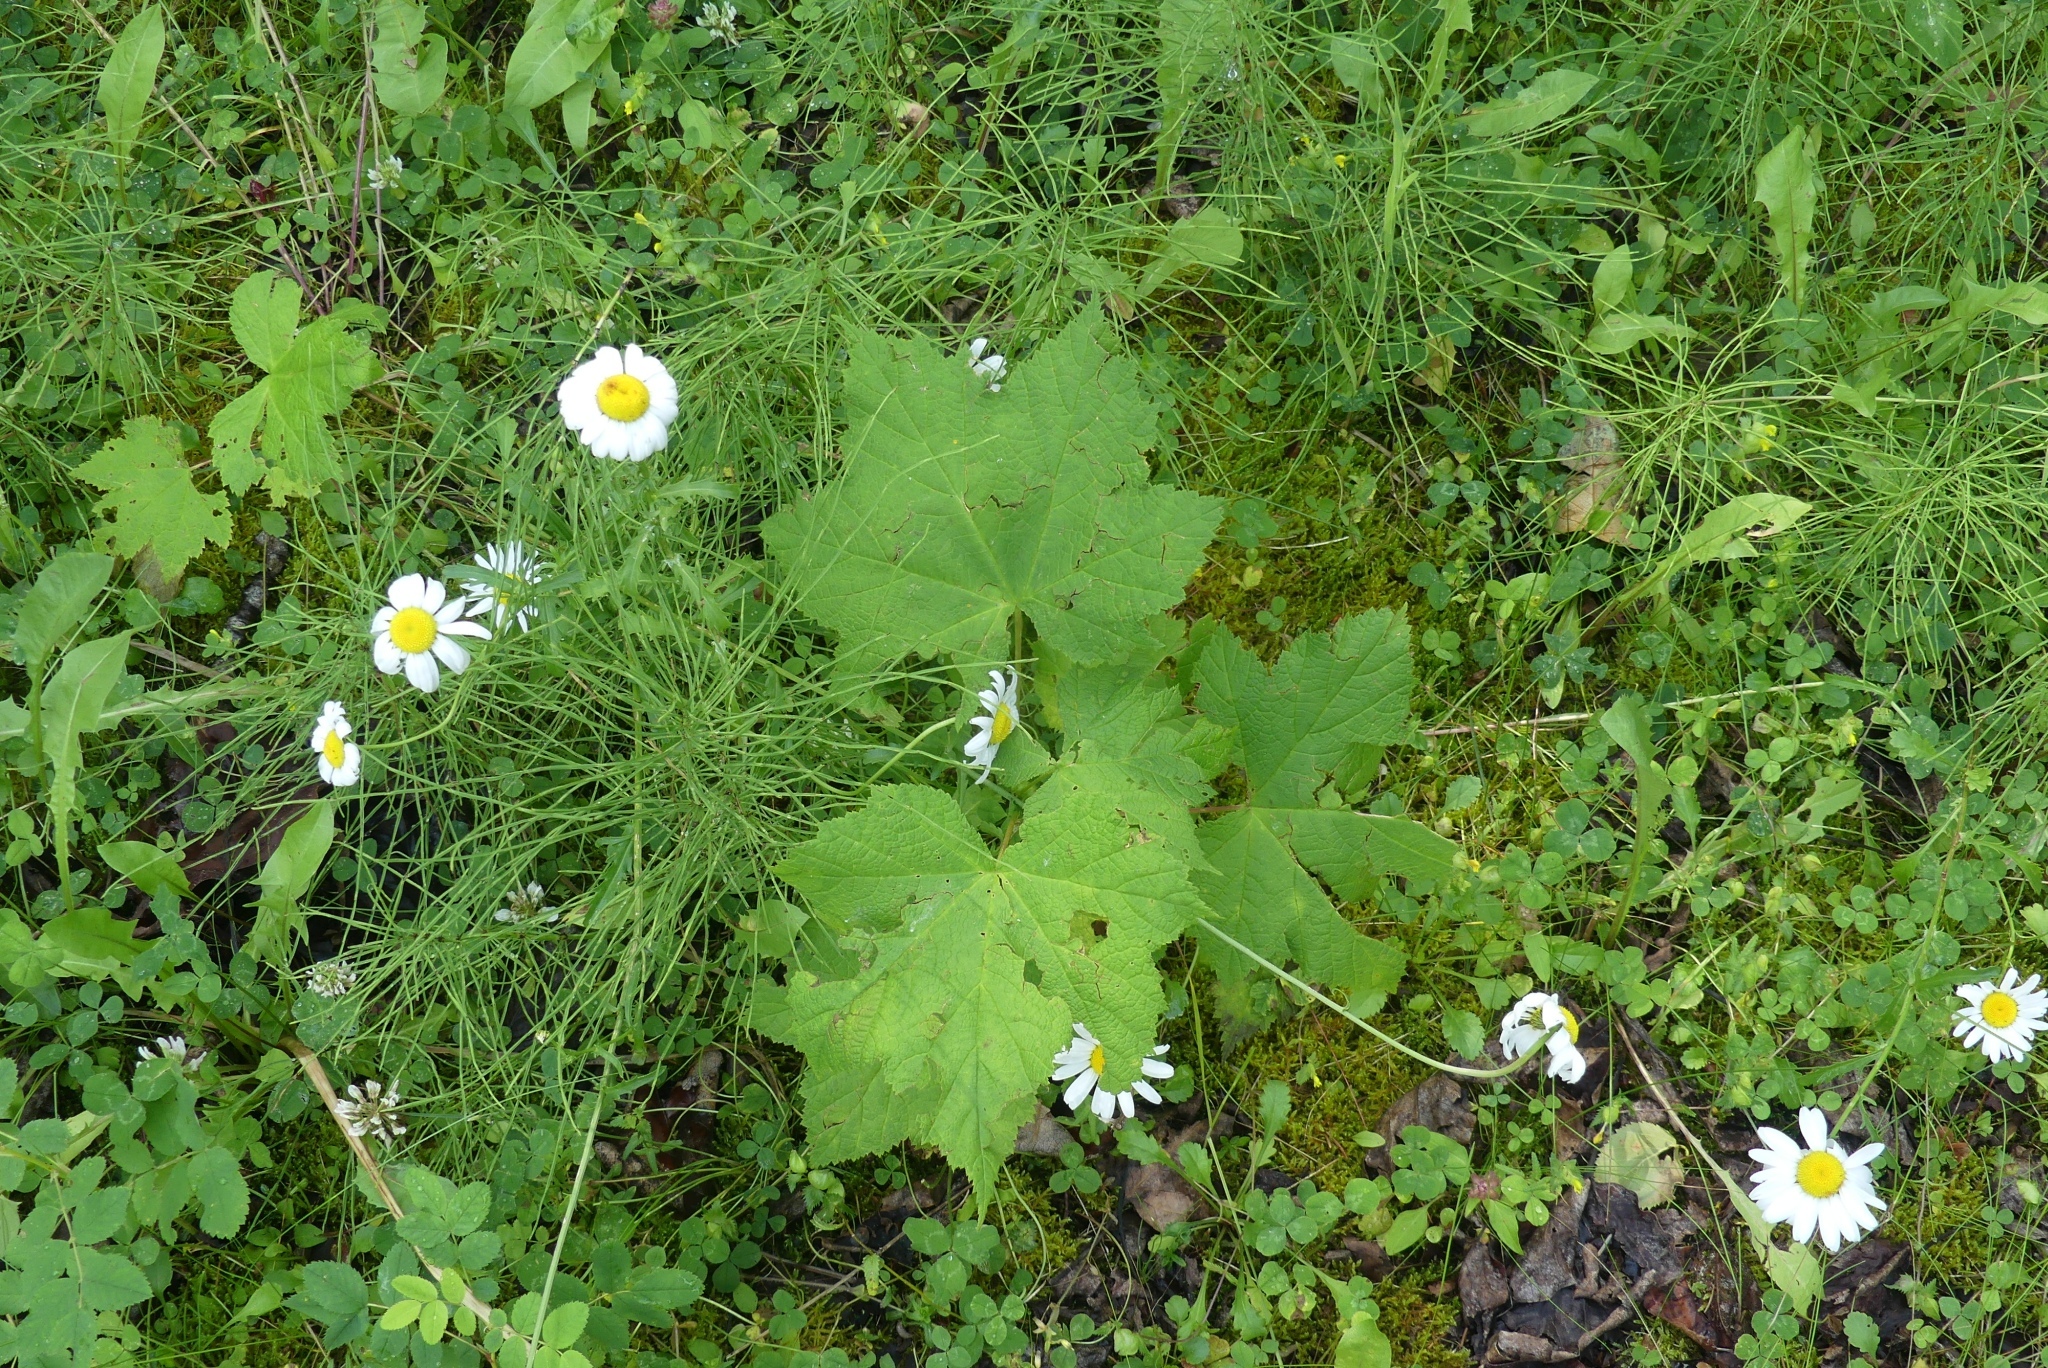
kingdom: Plantae
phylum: Tracheophyta
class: Magnoliopsida
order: Rosales
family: Rosaceae
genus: Rubus
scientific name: Rubus parviflorus
